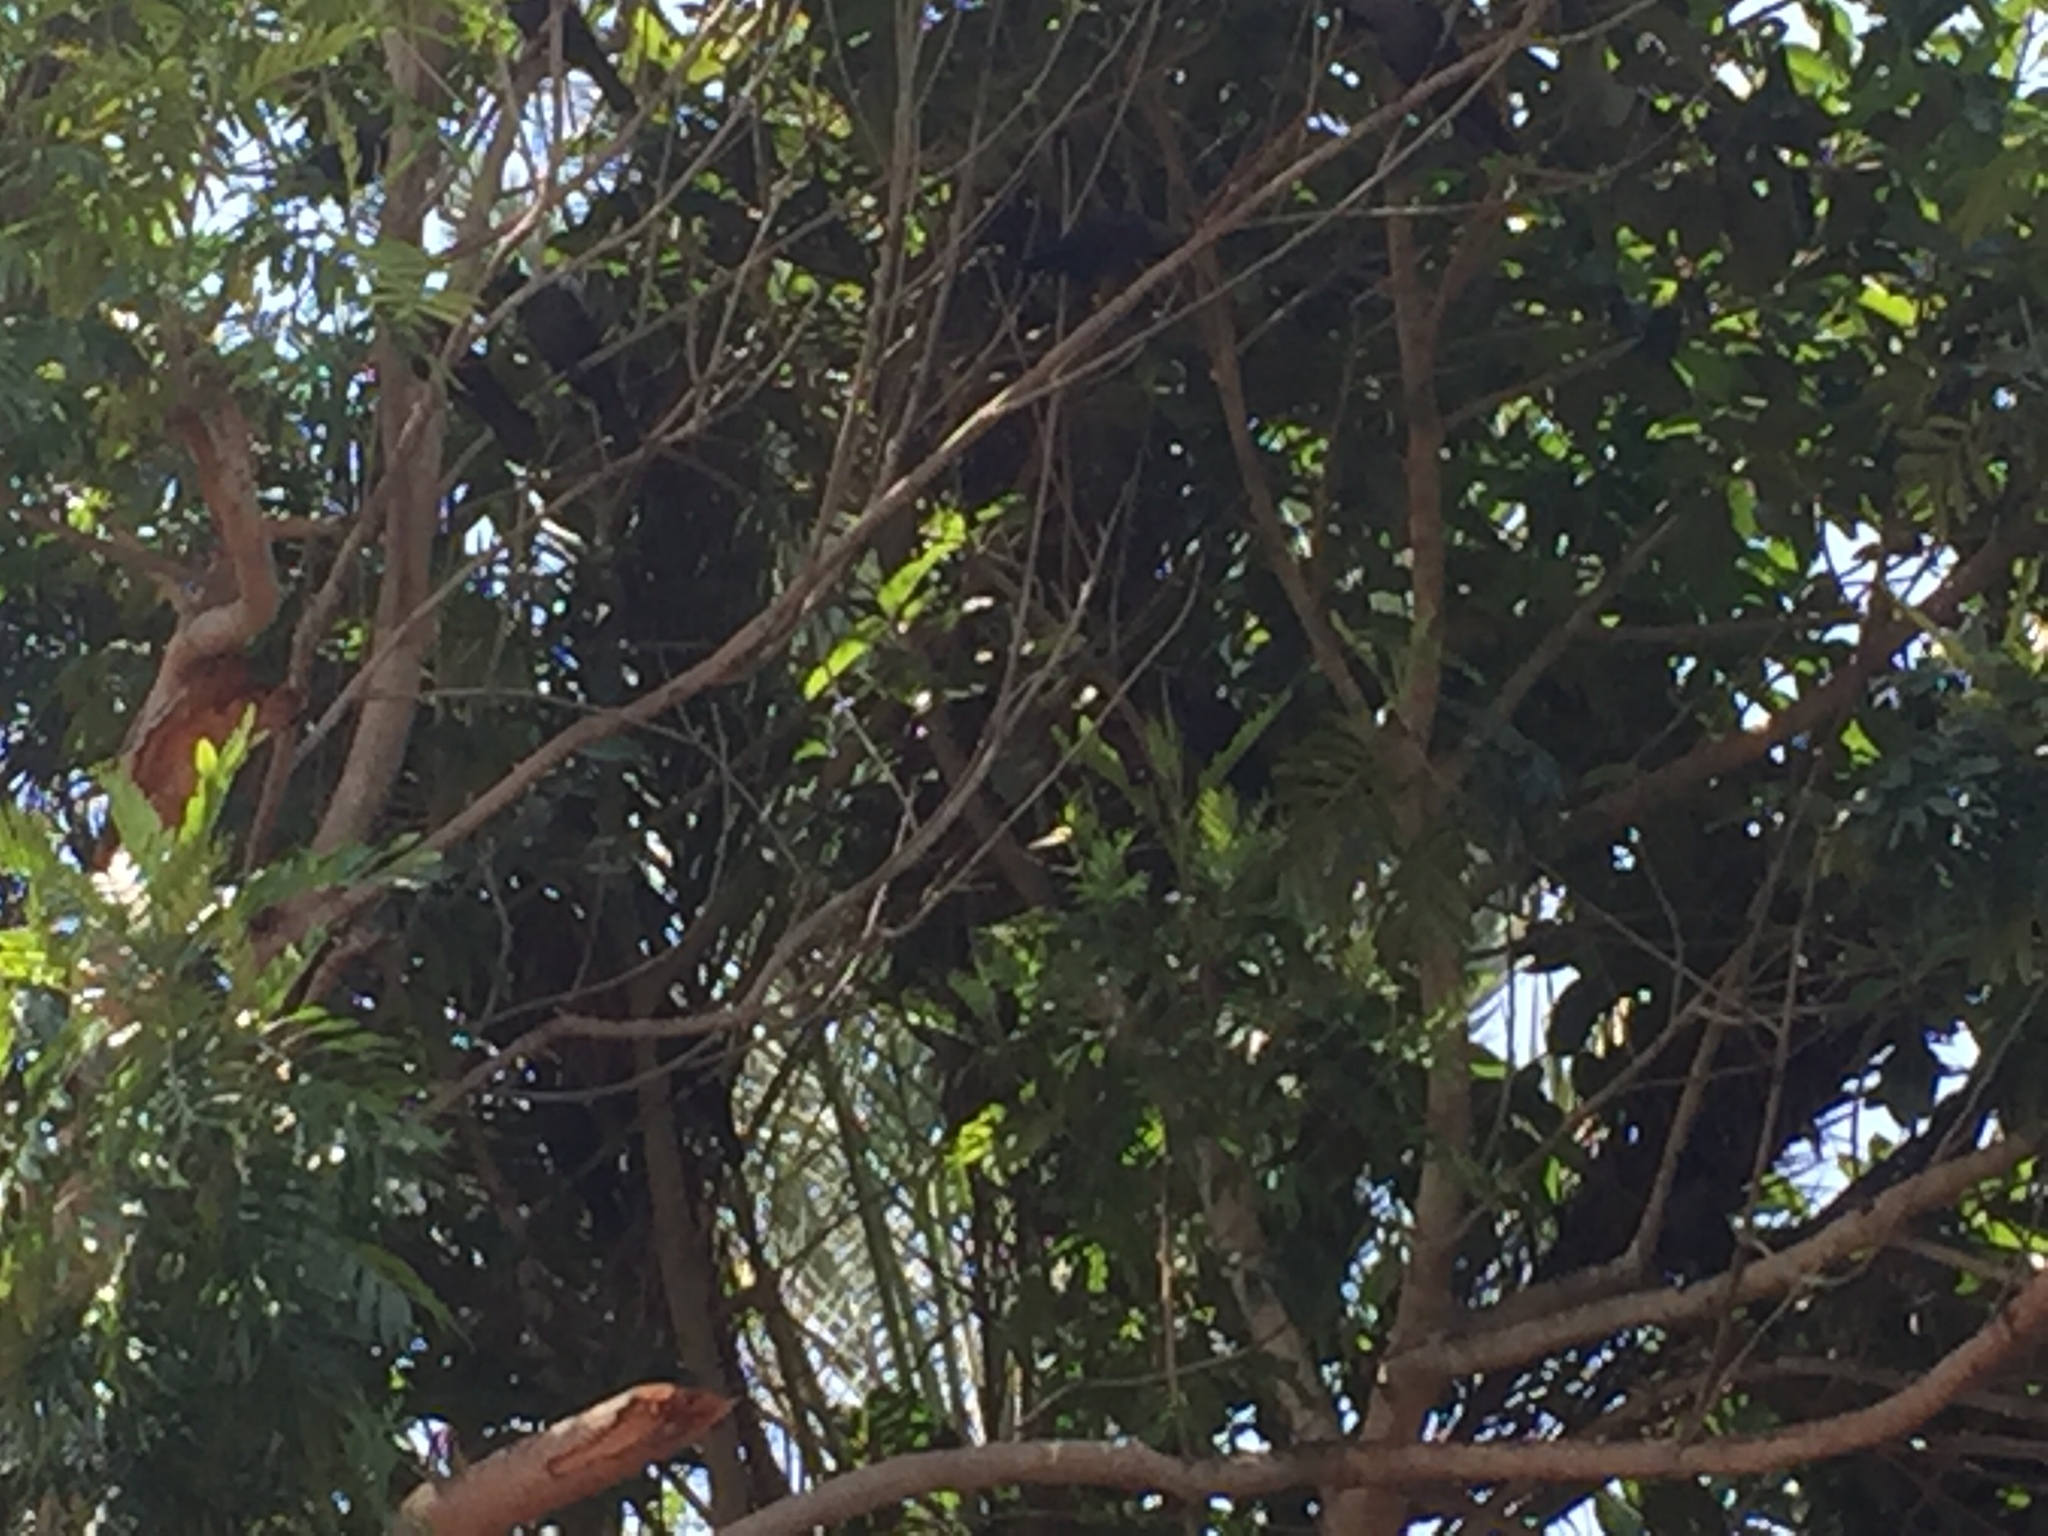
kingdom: Animalia
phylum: Chordata
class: Aves
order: Passeriformes
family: Corvidae
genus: Corvus
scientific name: Corvus splendens
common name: House crow
